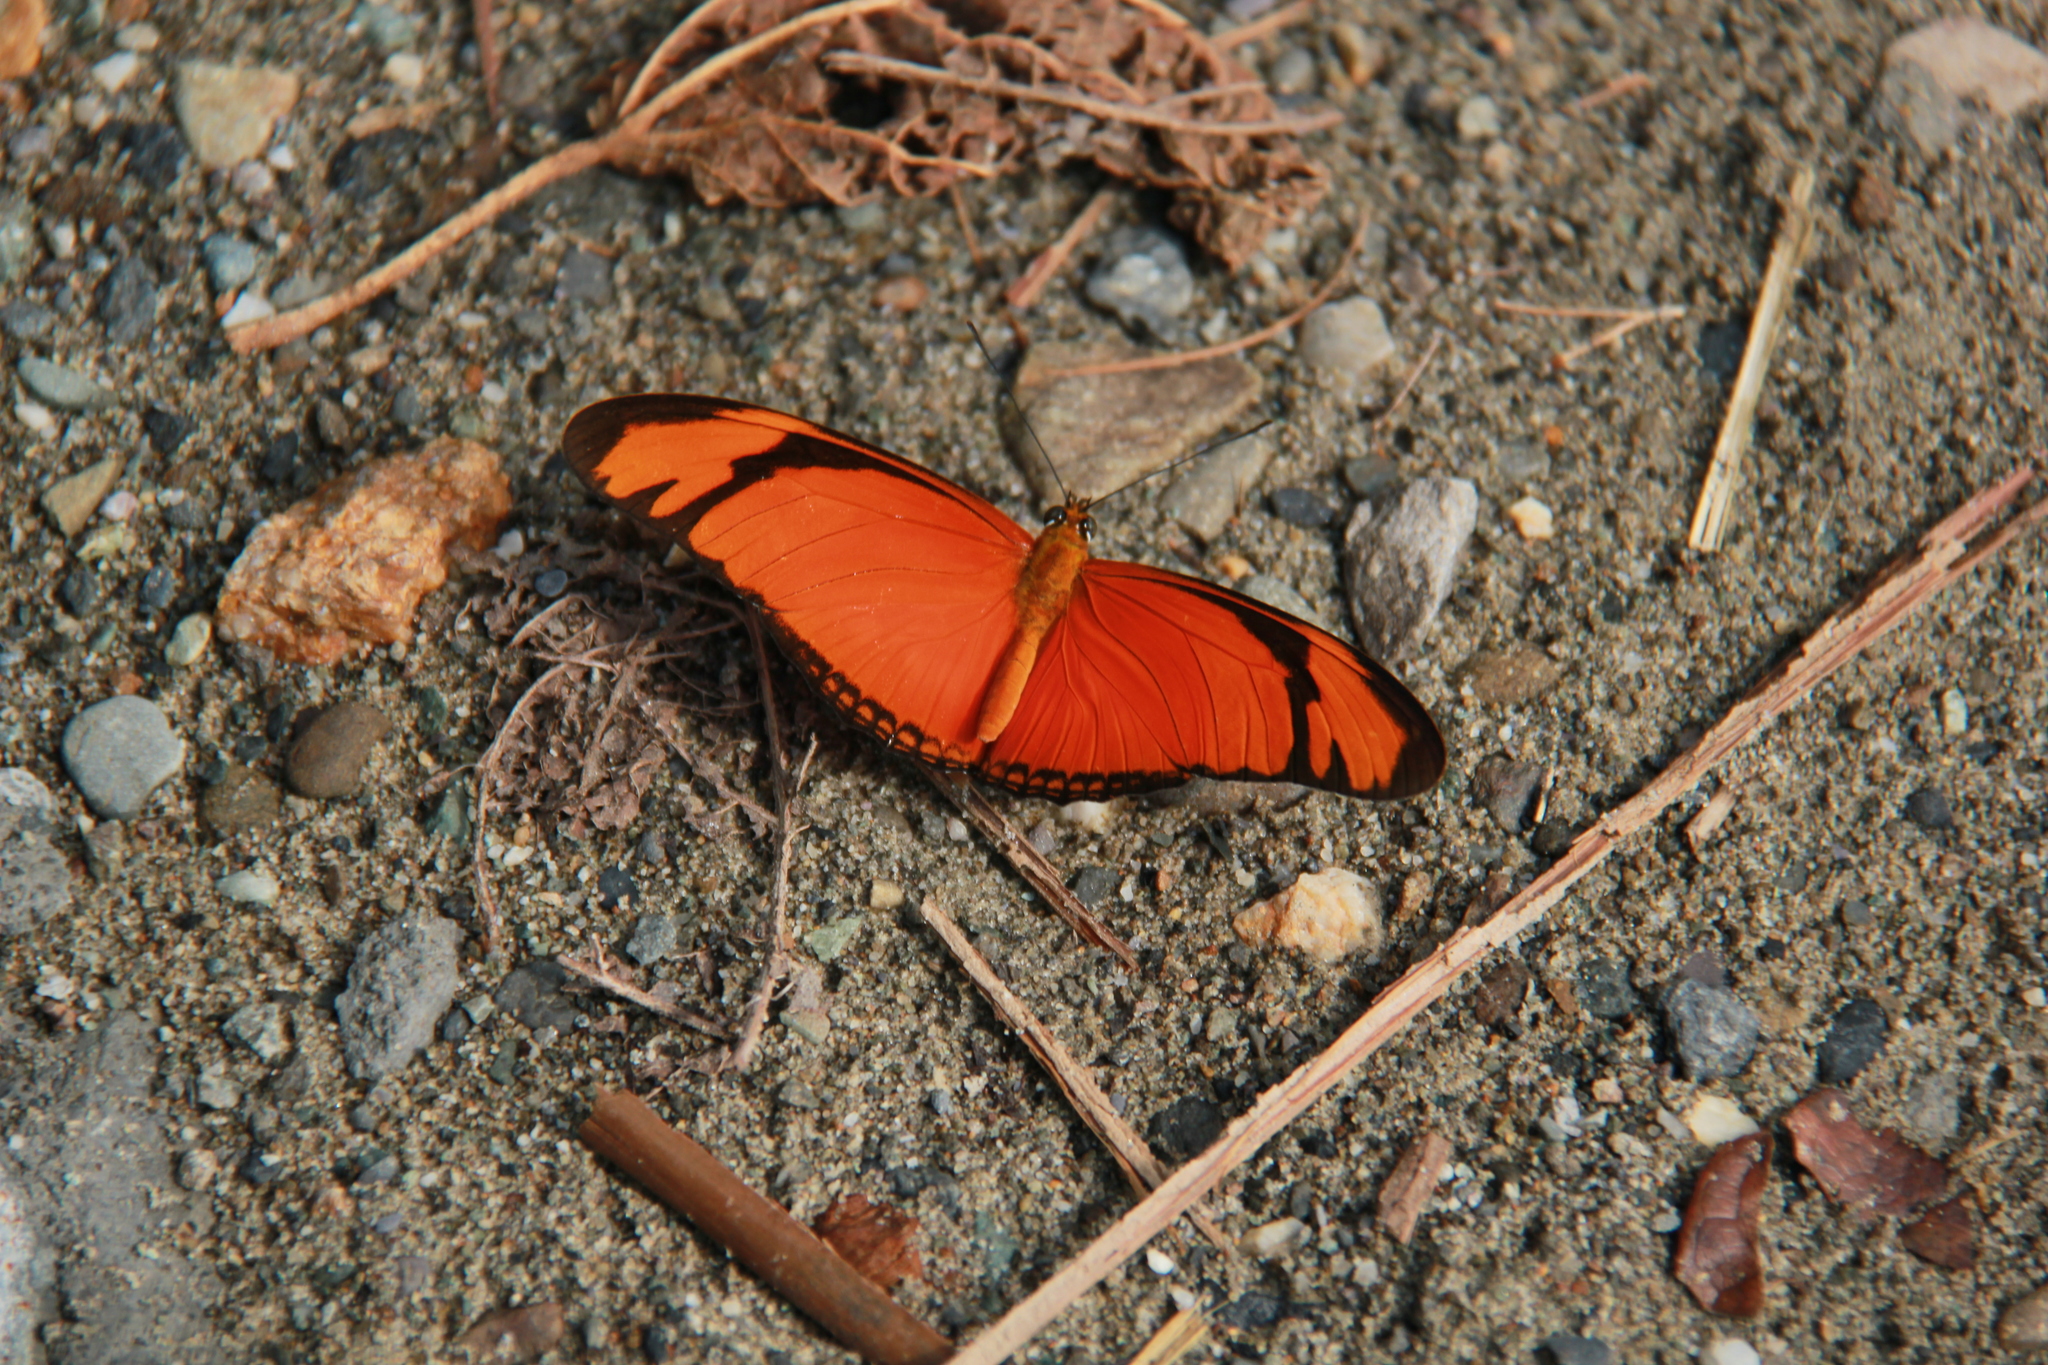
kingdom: Animalia
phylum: Arthropoda
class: Insecta
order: Lepidoptera
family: Nymphalidae
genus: Dryas
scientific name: Dryas iulia
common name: Flambeau
